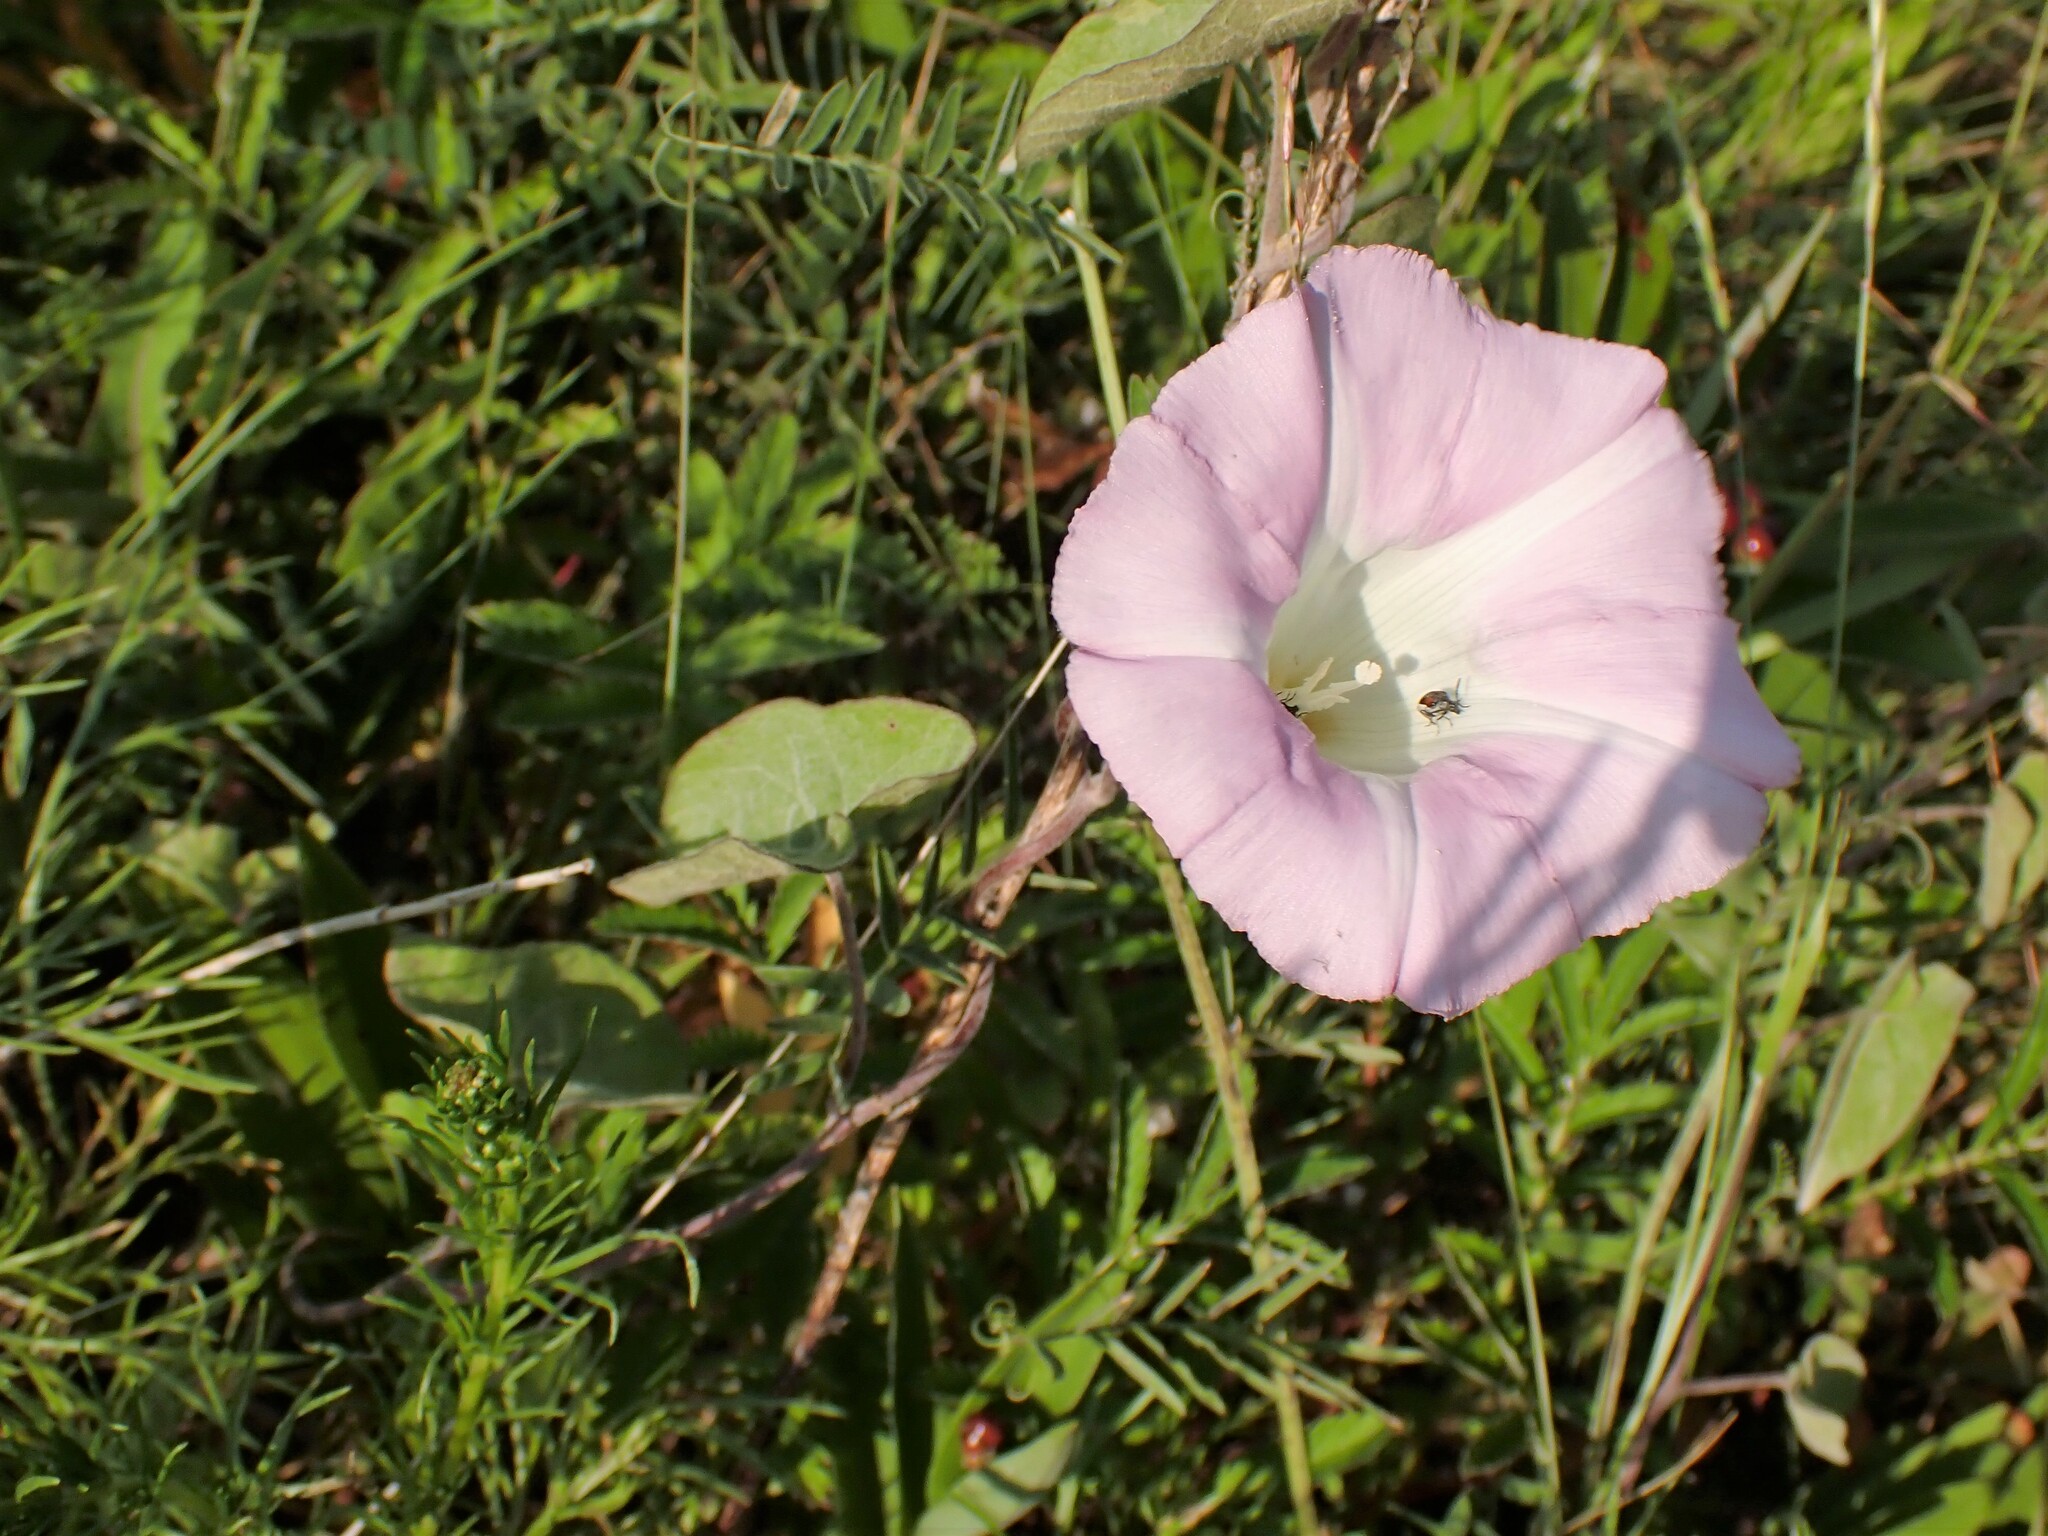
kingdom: Plantae
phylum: Tracheophyta
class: Magnoliopsida
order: Solanales
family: Convolvulaceae
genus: Calystegia
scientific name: Calystegia sepium
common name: Hedge bindweed
